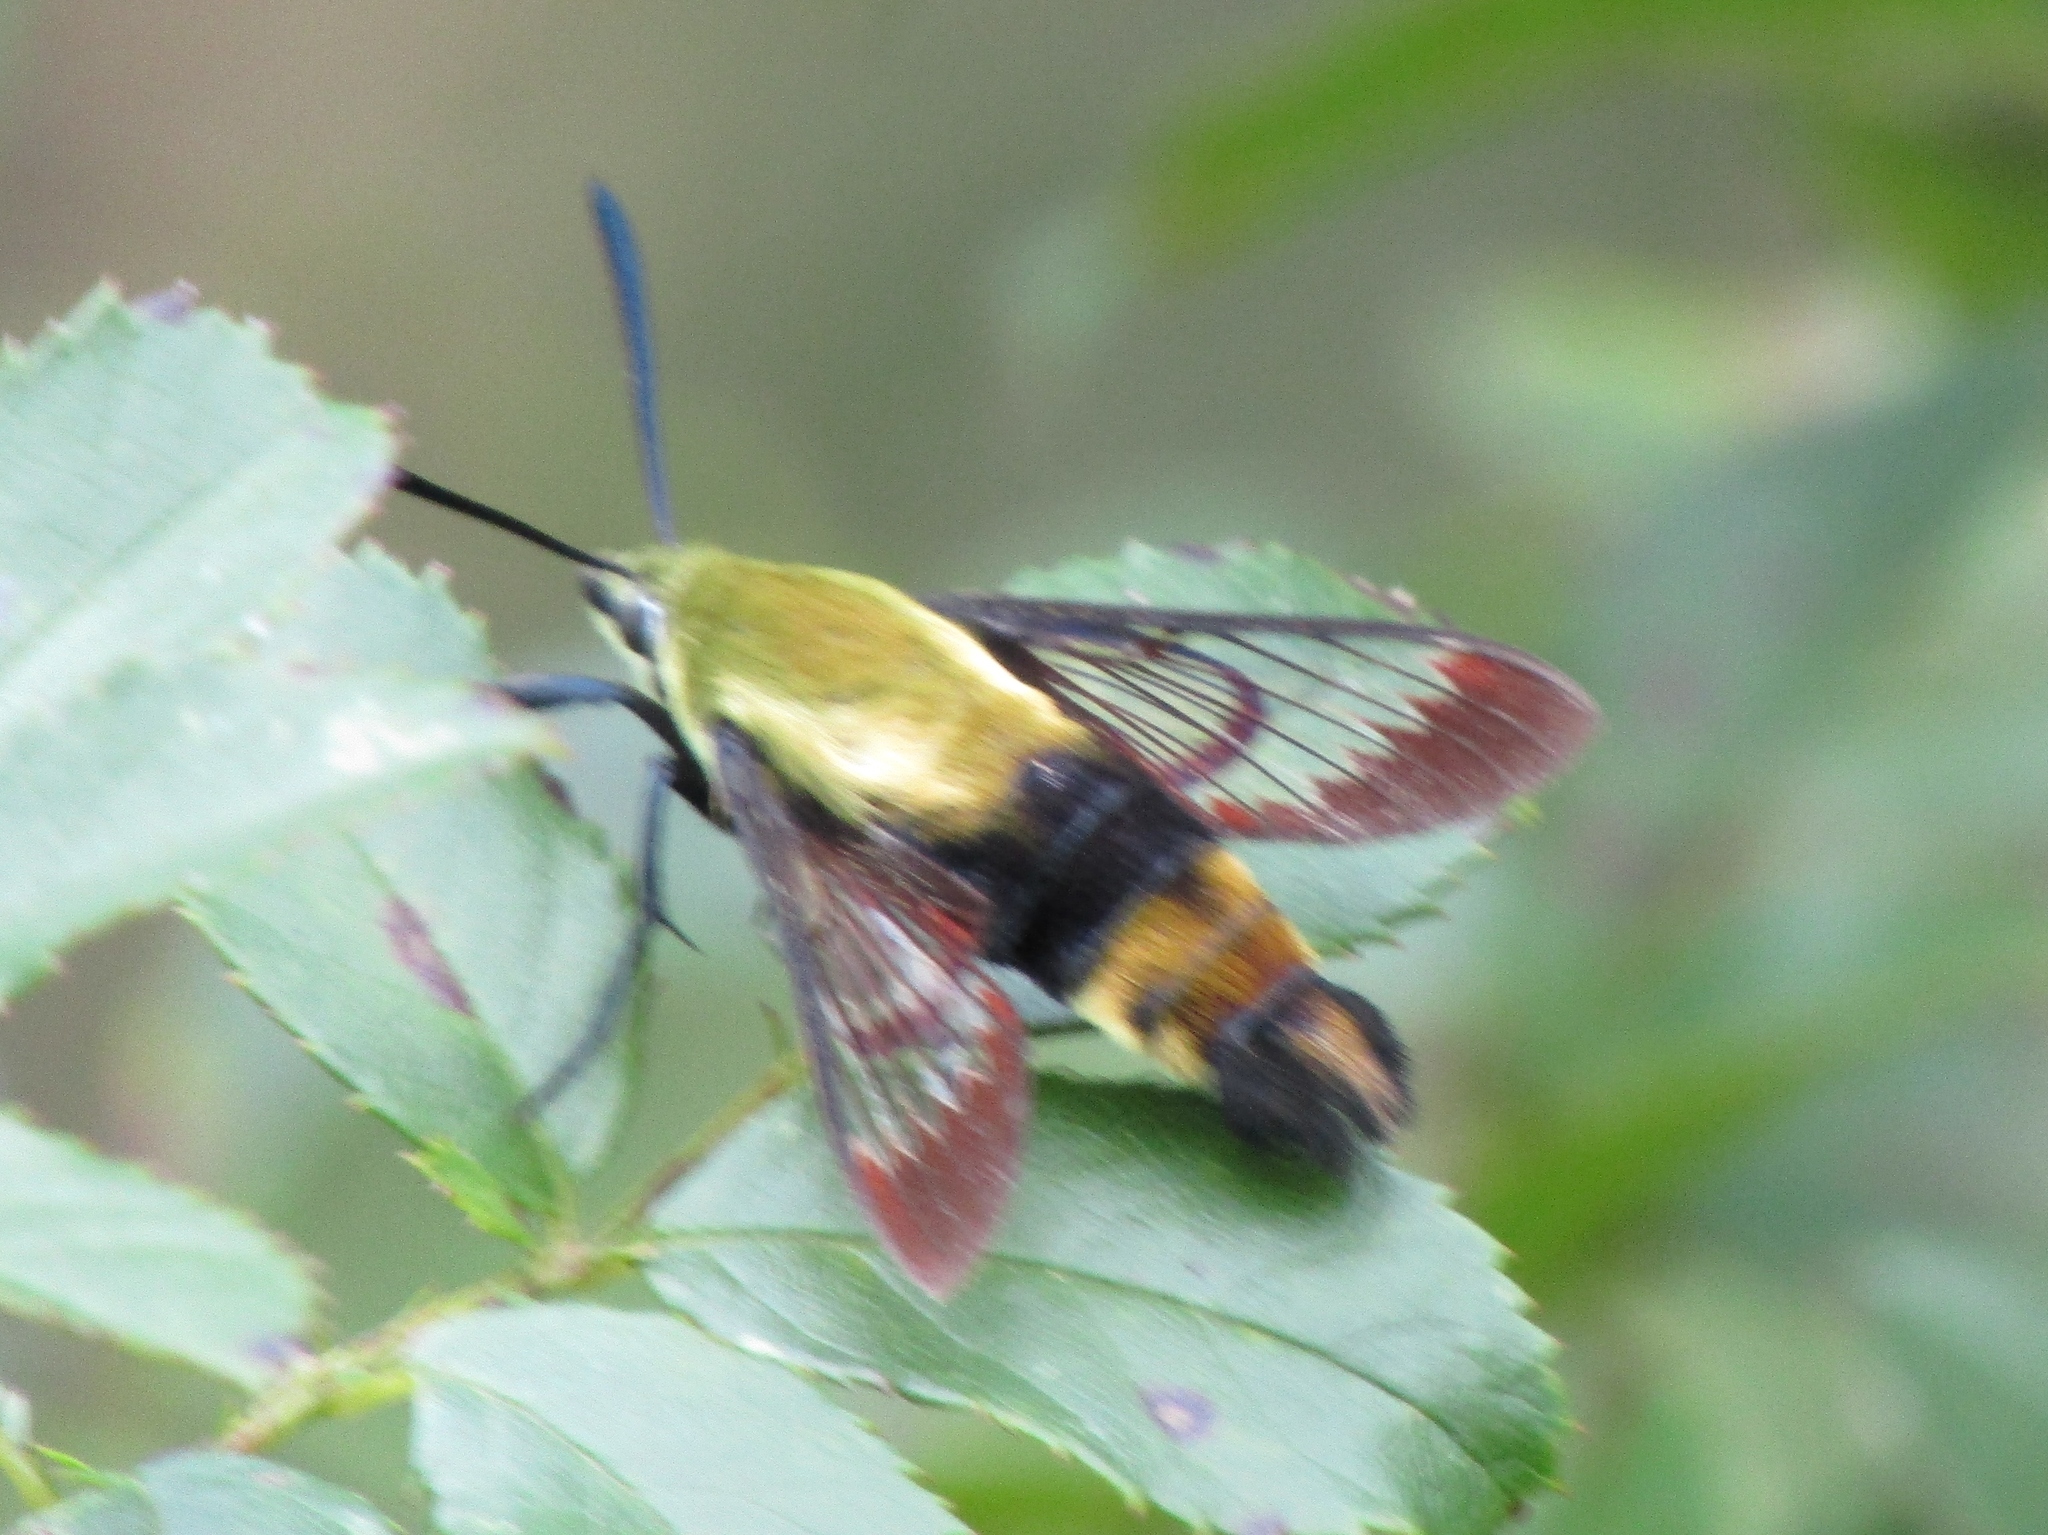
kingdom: Animalia
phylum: Arthropoda
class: Insecta
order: Lepidoptera
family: Sphingidae
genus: Hemaris
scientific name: Hemaris diffinis
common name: Bumblebee moth
